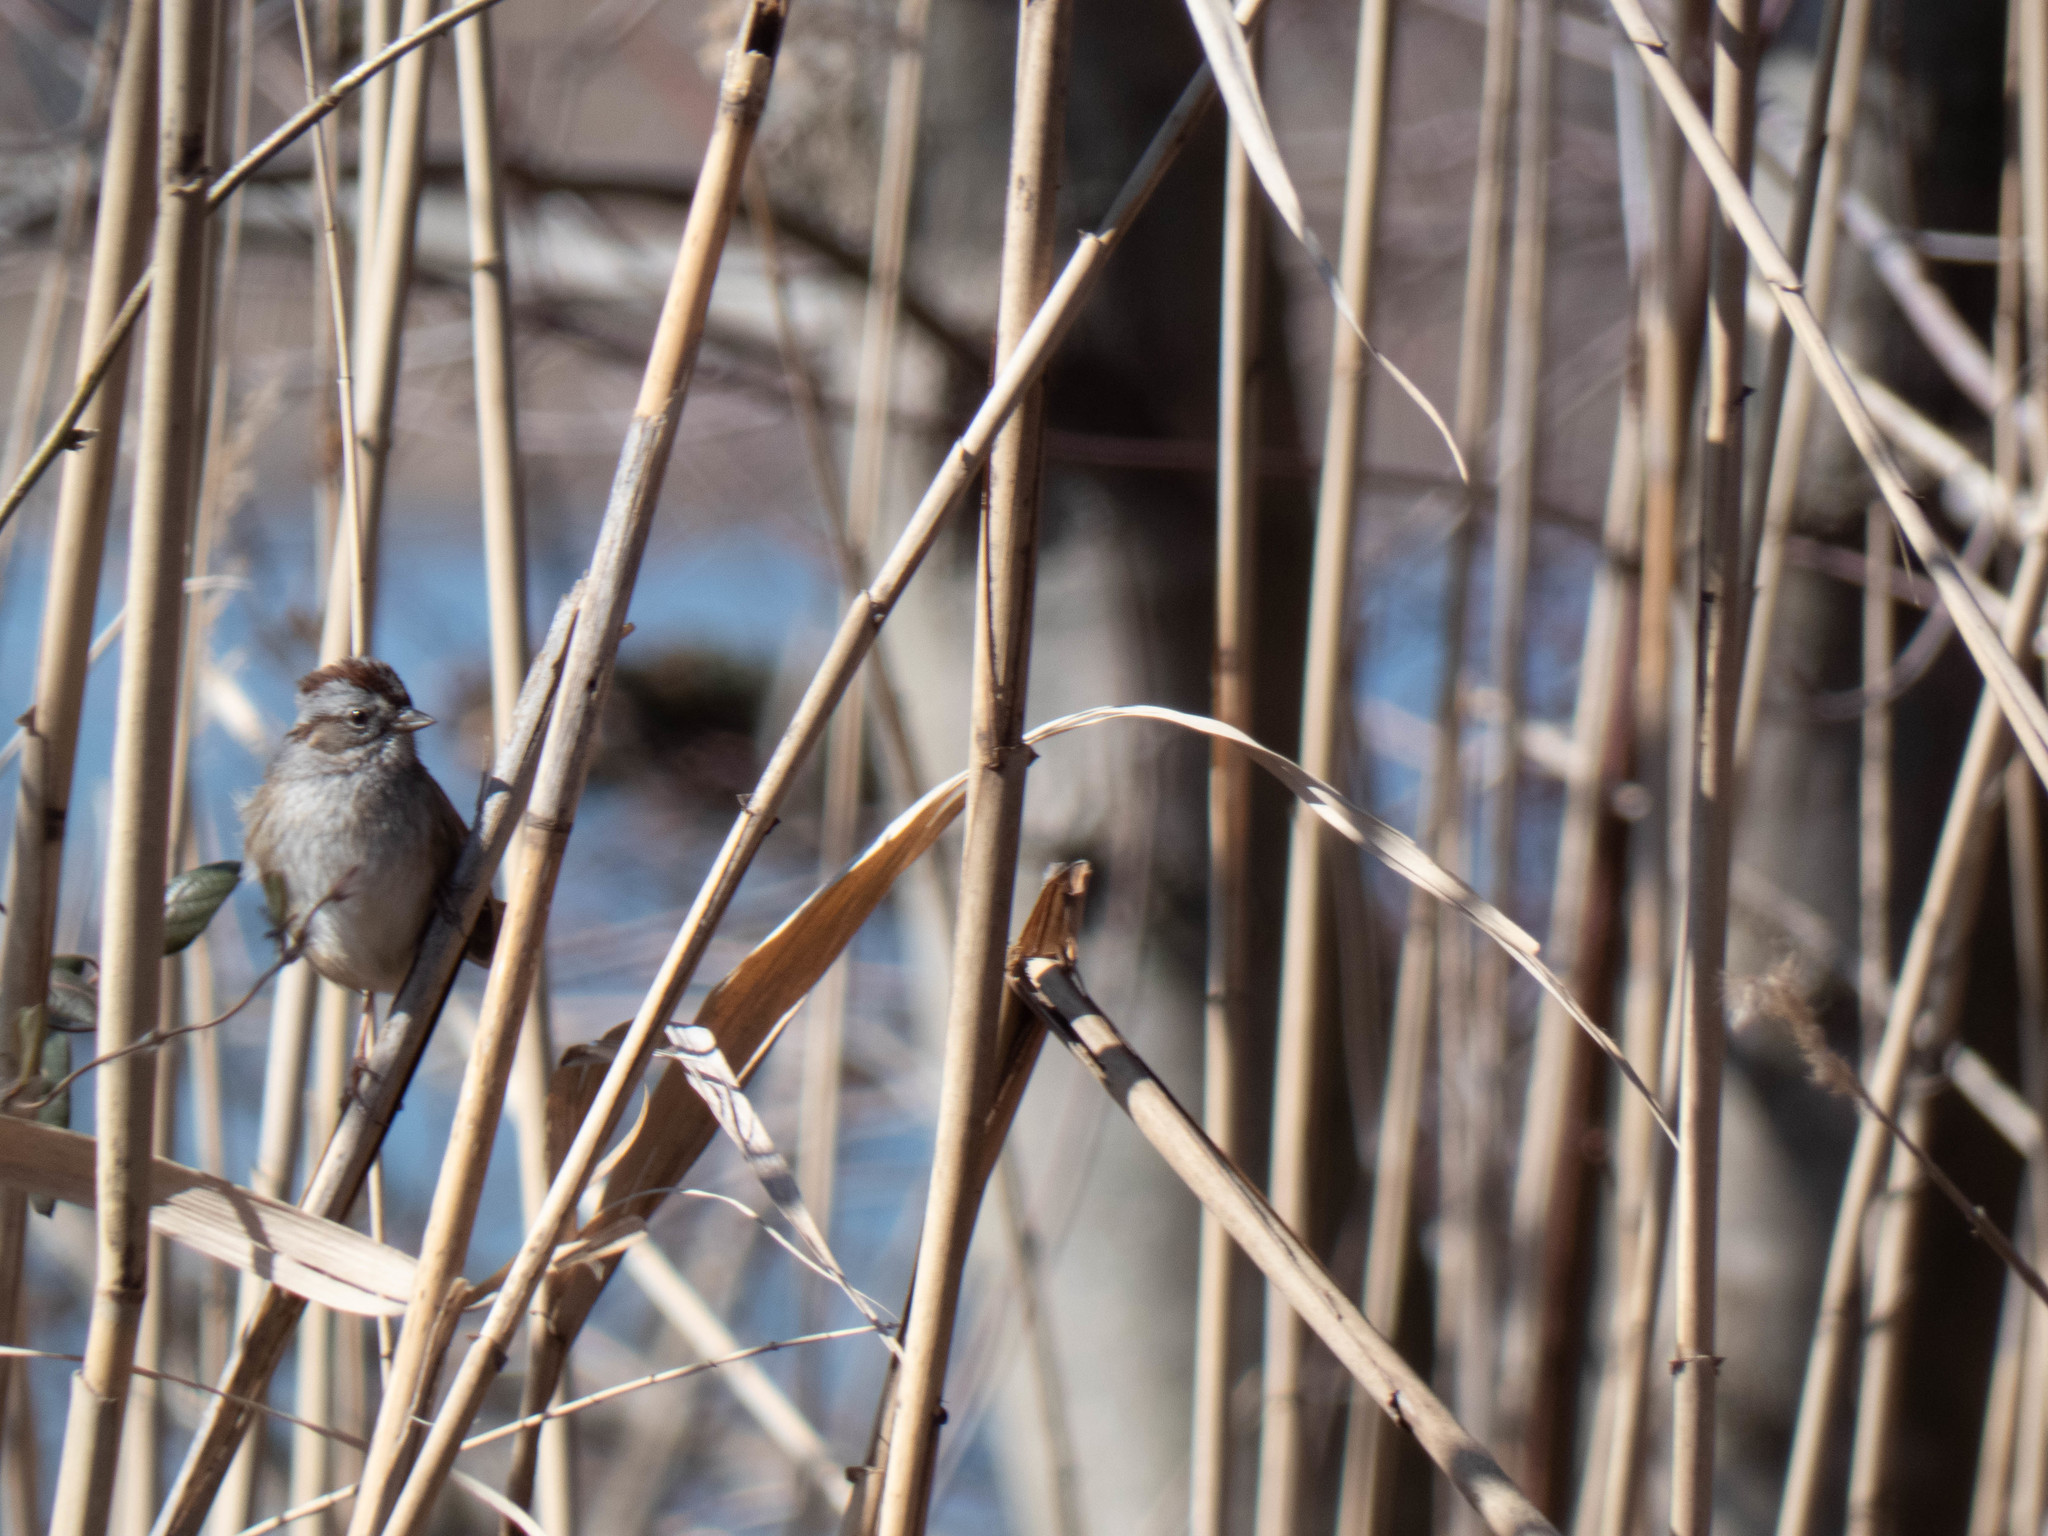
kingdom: Animalia
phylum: Chordata
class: Aves
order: Passeriformes
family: Passerellidae
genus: Melospiza
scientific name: Melospiza georgiana
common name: Swamp sparrow
